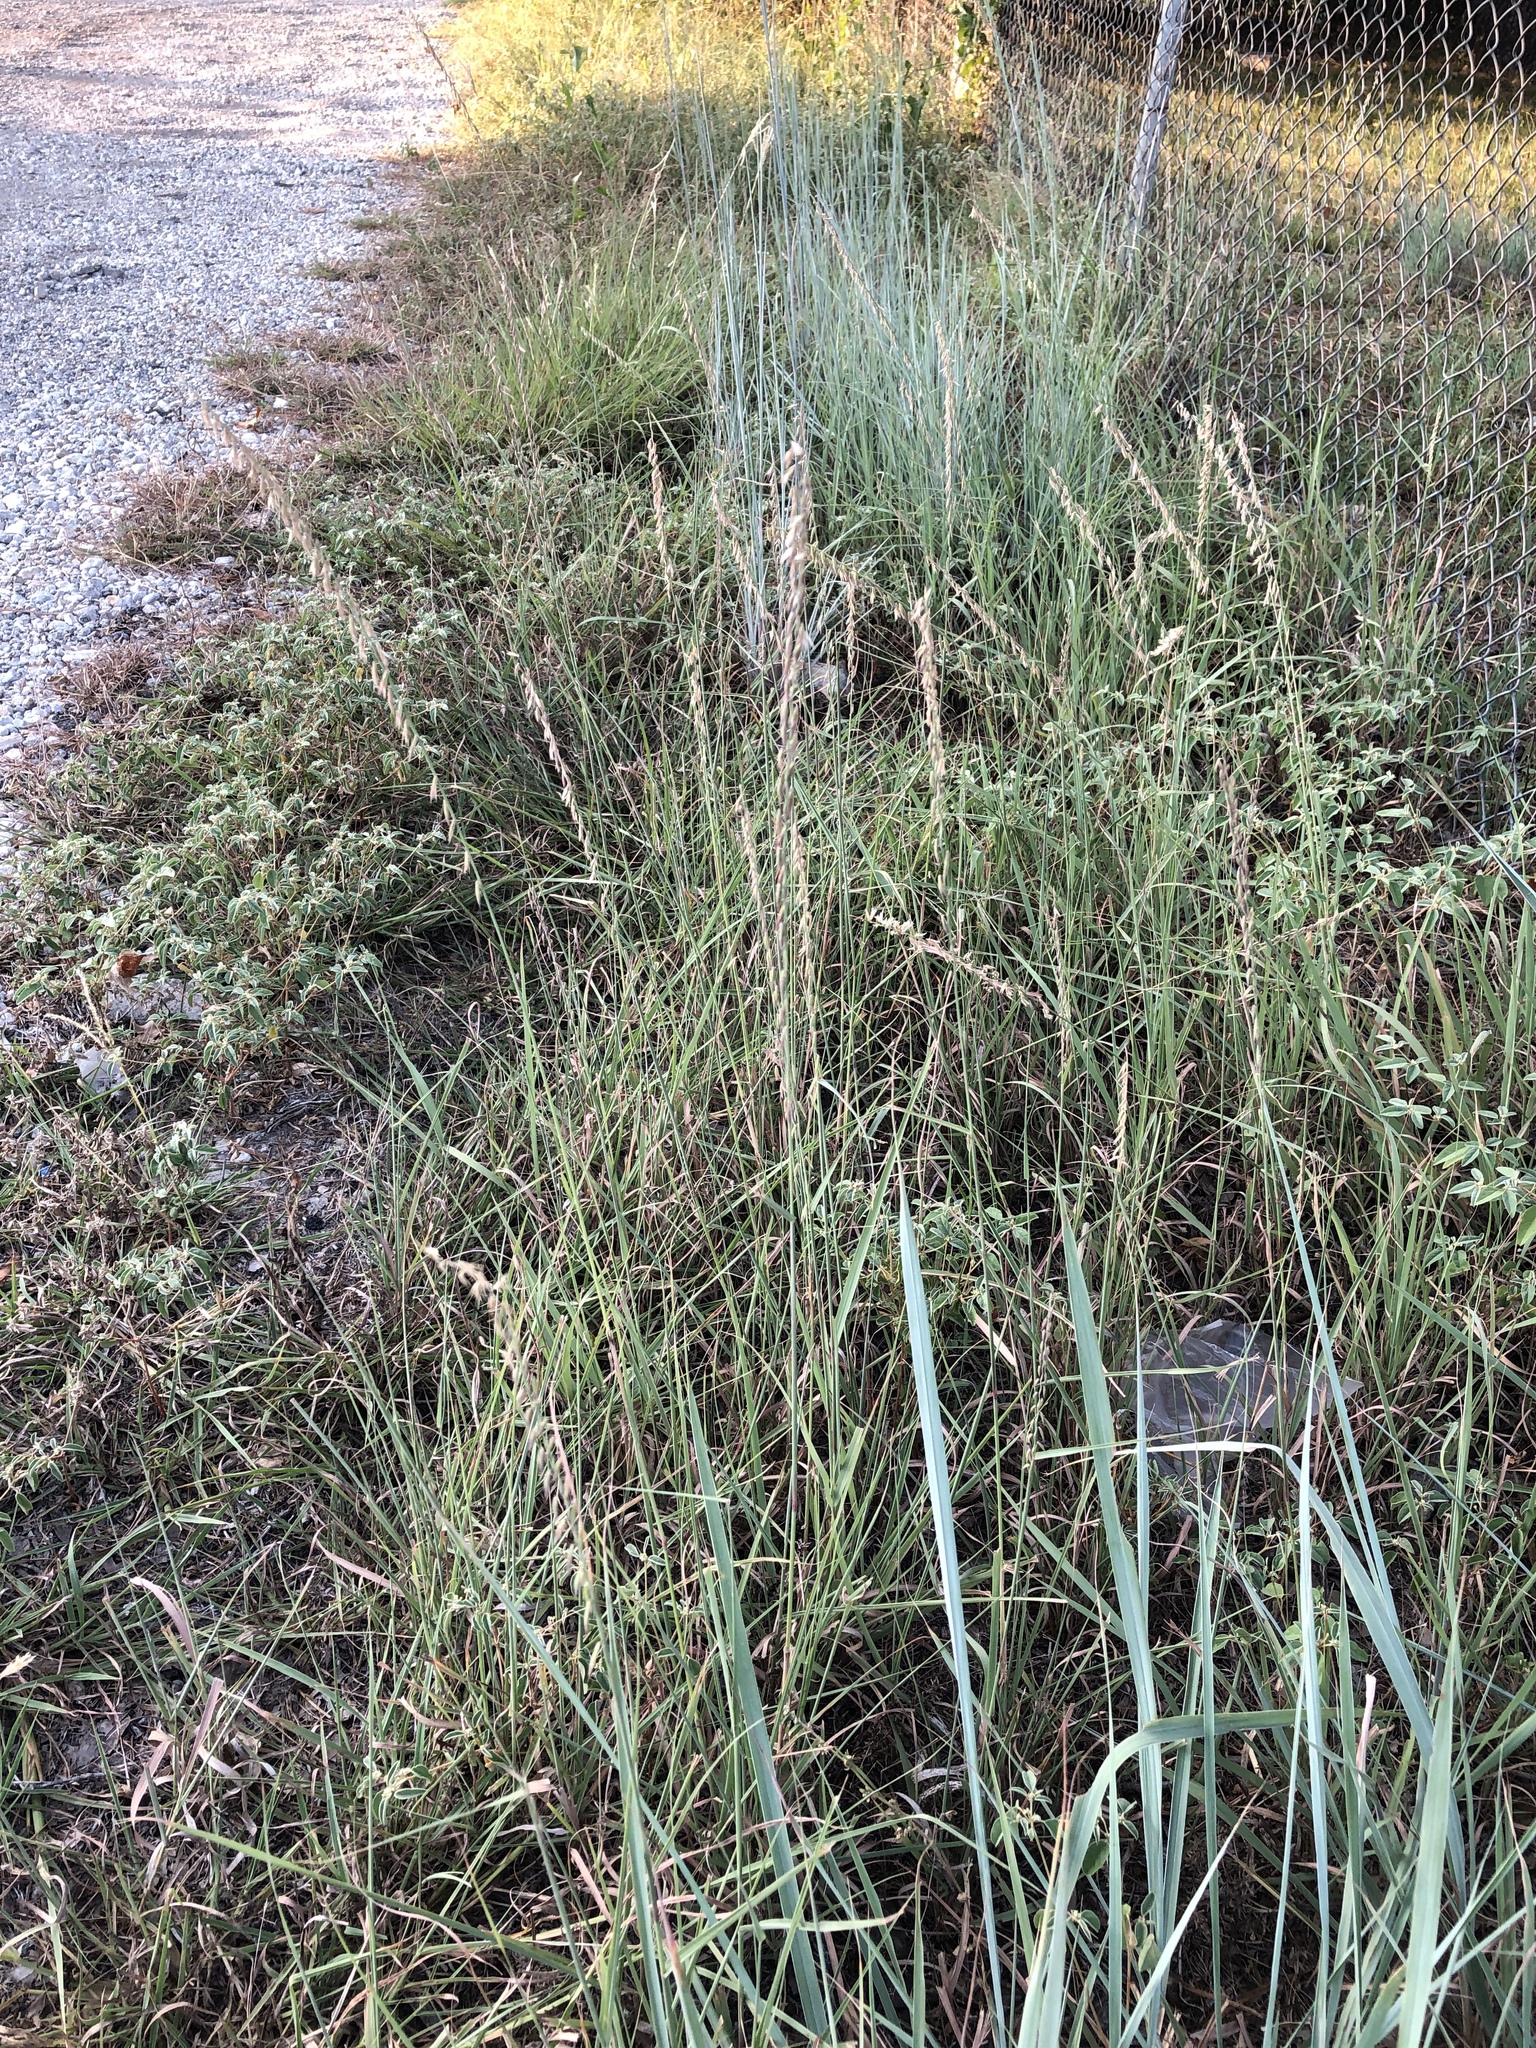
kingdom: Plantae
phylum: Tracheophyta
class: Liliopsida
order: Poales
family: Poaceae
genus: Bouteloua
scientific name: Bouteloua curtipendula
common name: Side-oats grama
